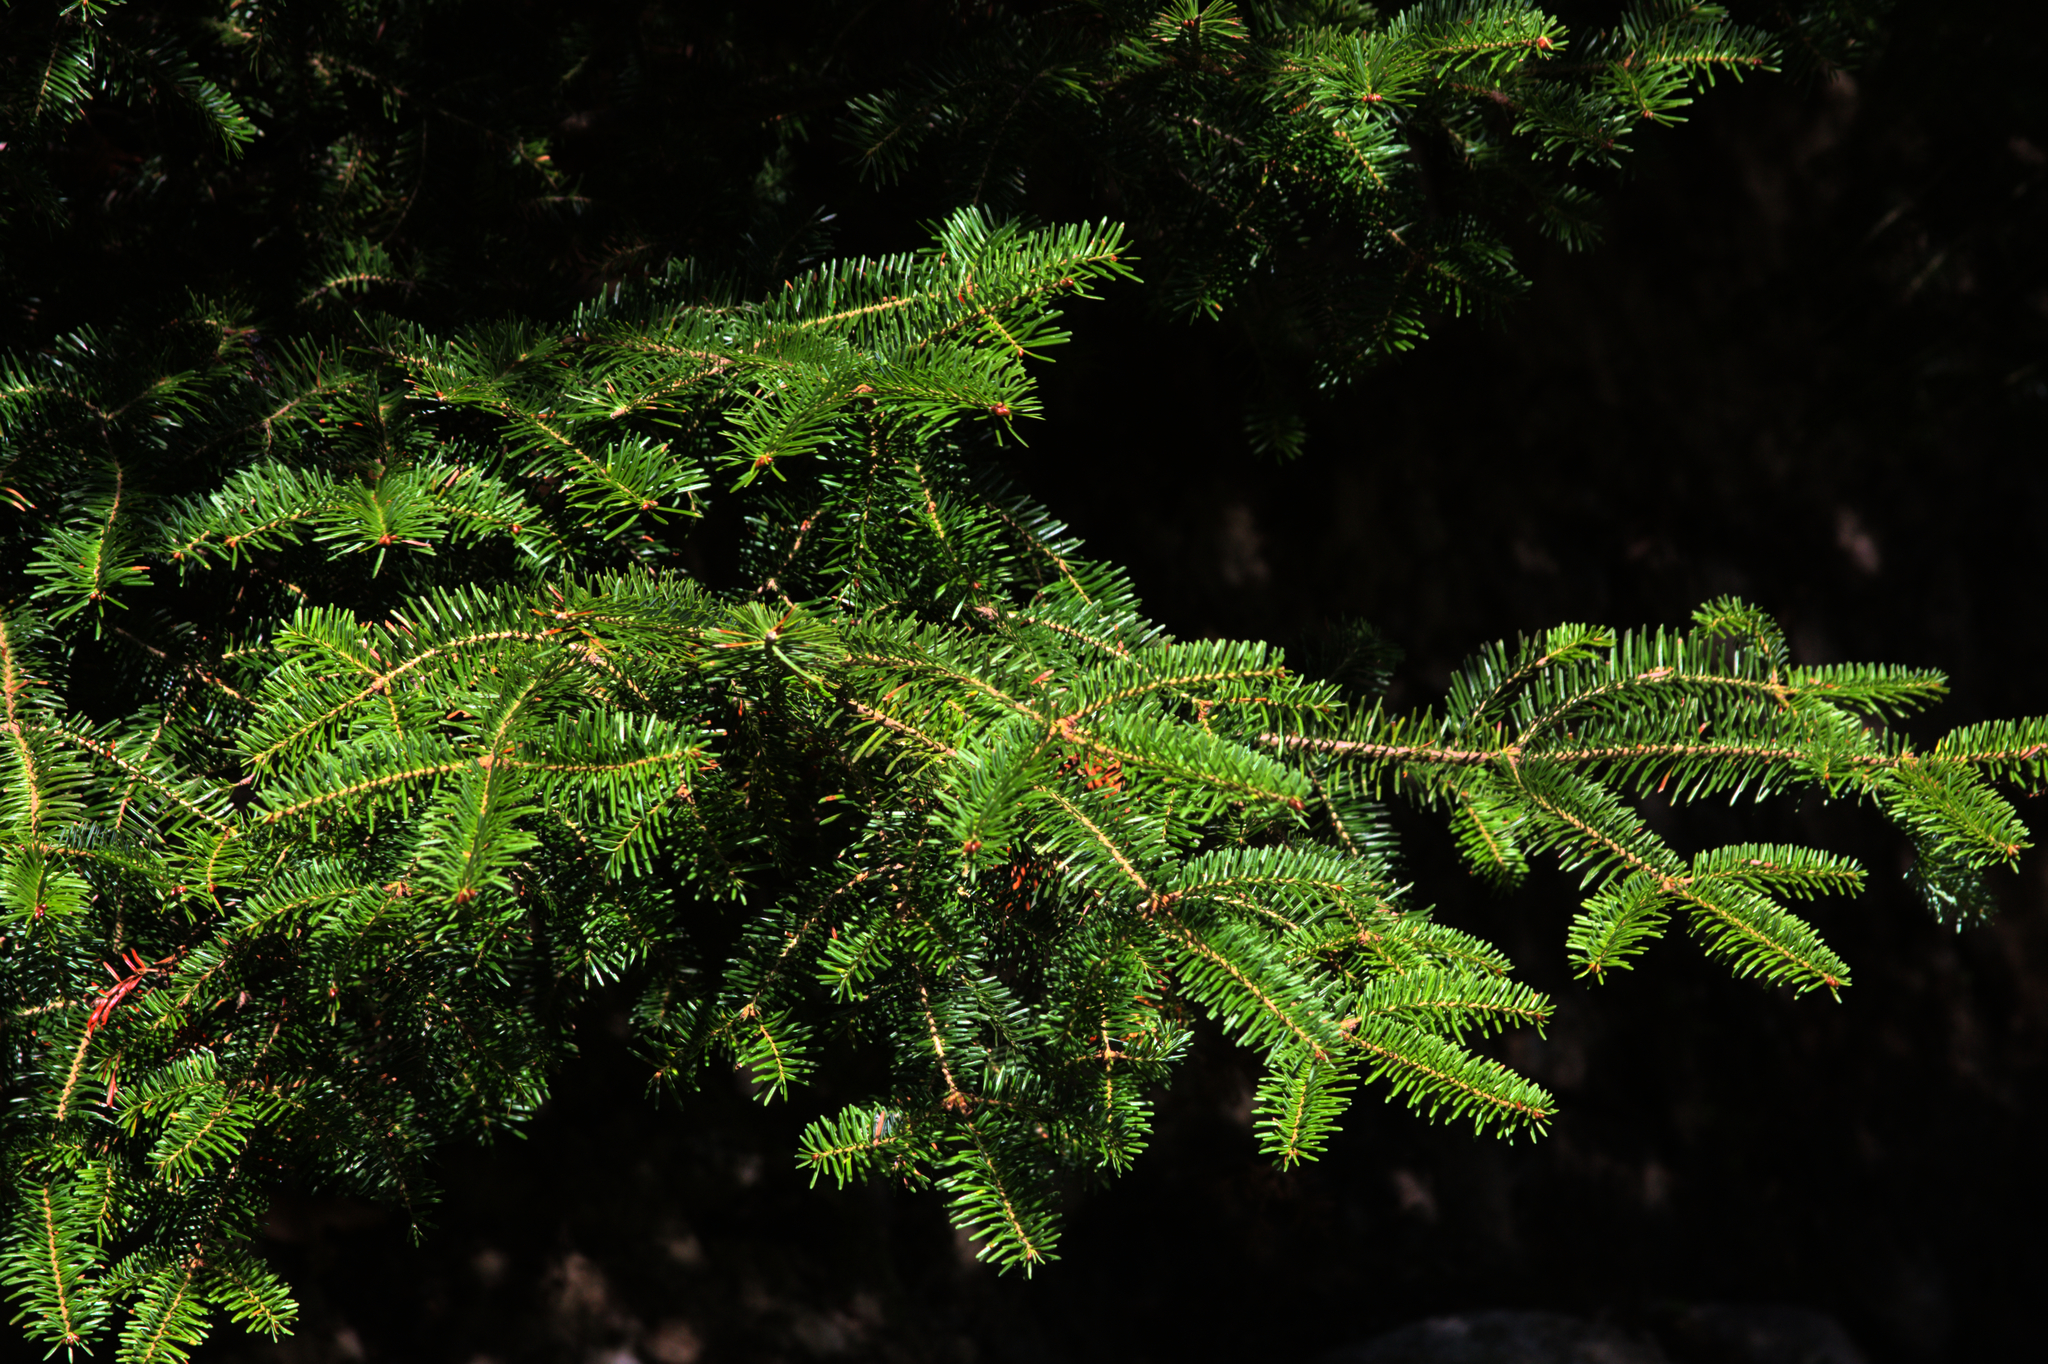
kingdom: Plantae
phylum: Tracheophyta
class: Pinopsida
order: Pinales
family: Pinaceae
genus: Abies
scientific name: Abies balsamea
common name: Balsam fir
